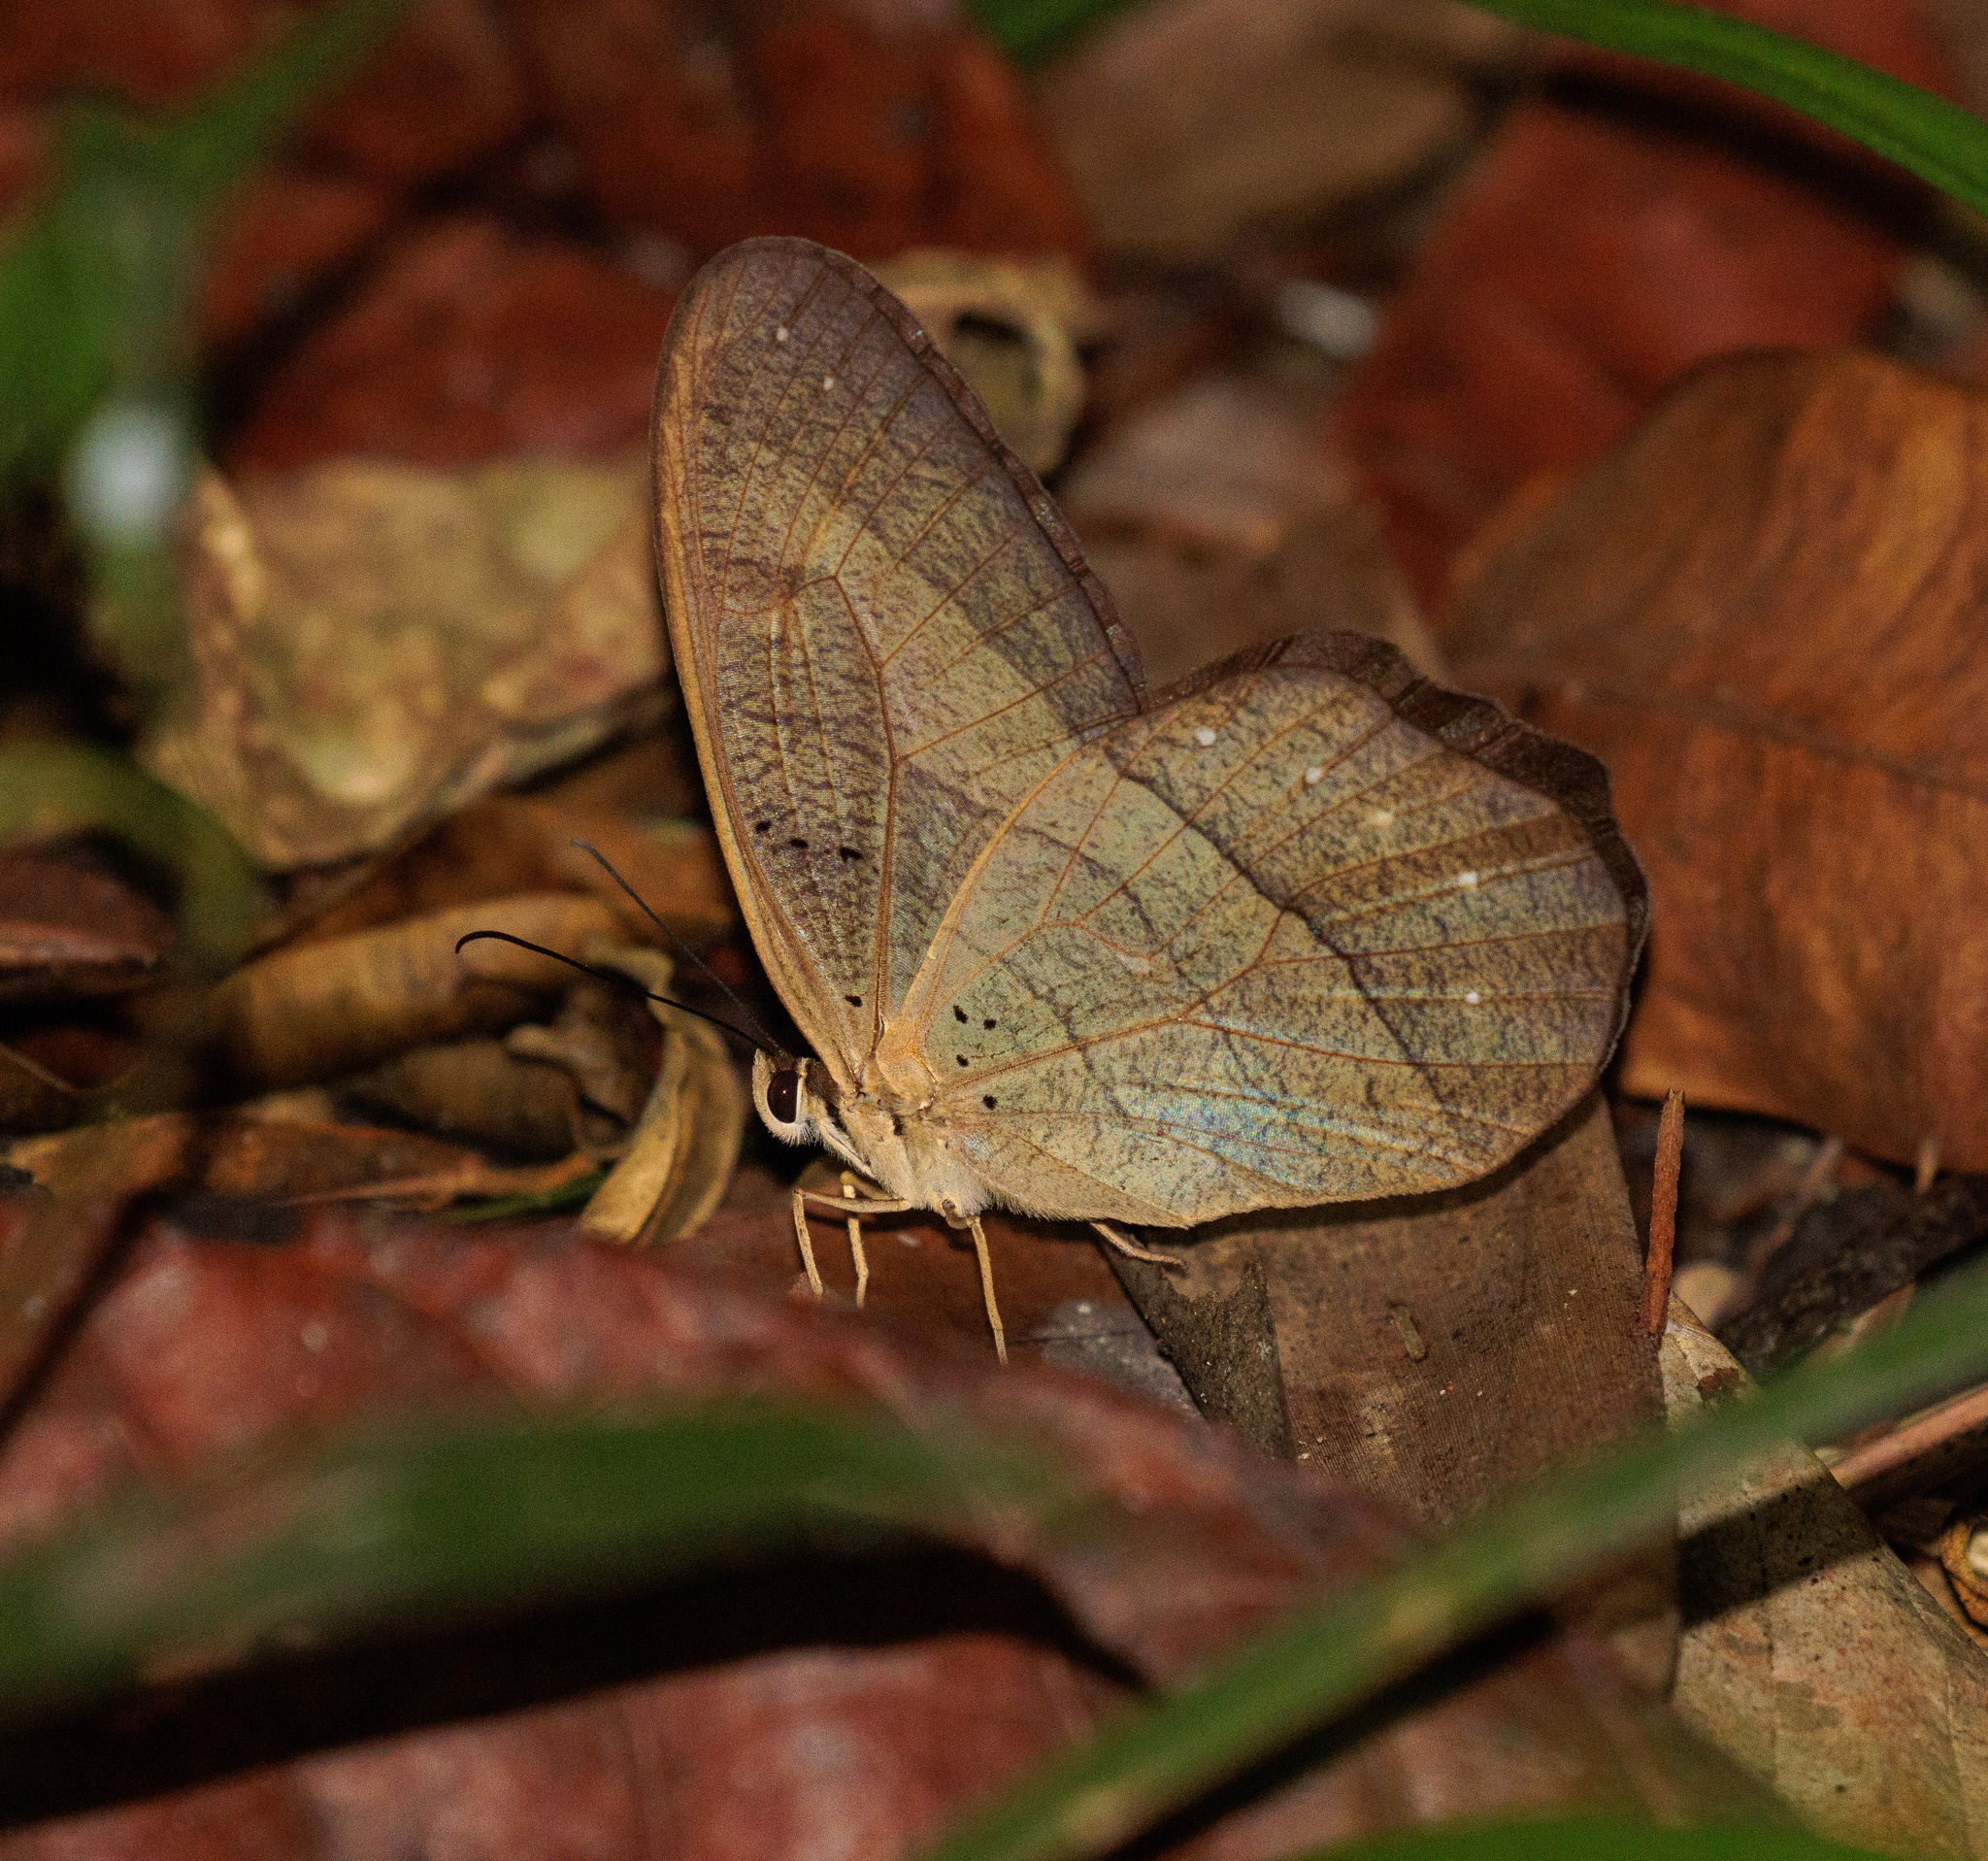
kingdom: Animalia
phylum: Arthropoda
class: Insecta
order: Lepidoptera
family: Nymphalidae
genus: Pierella
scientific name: Pierella kesselringi
